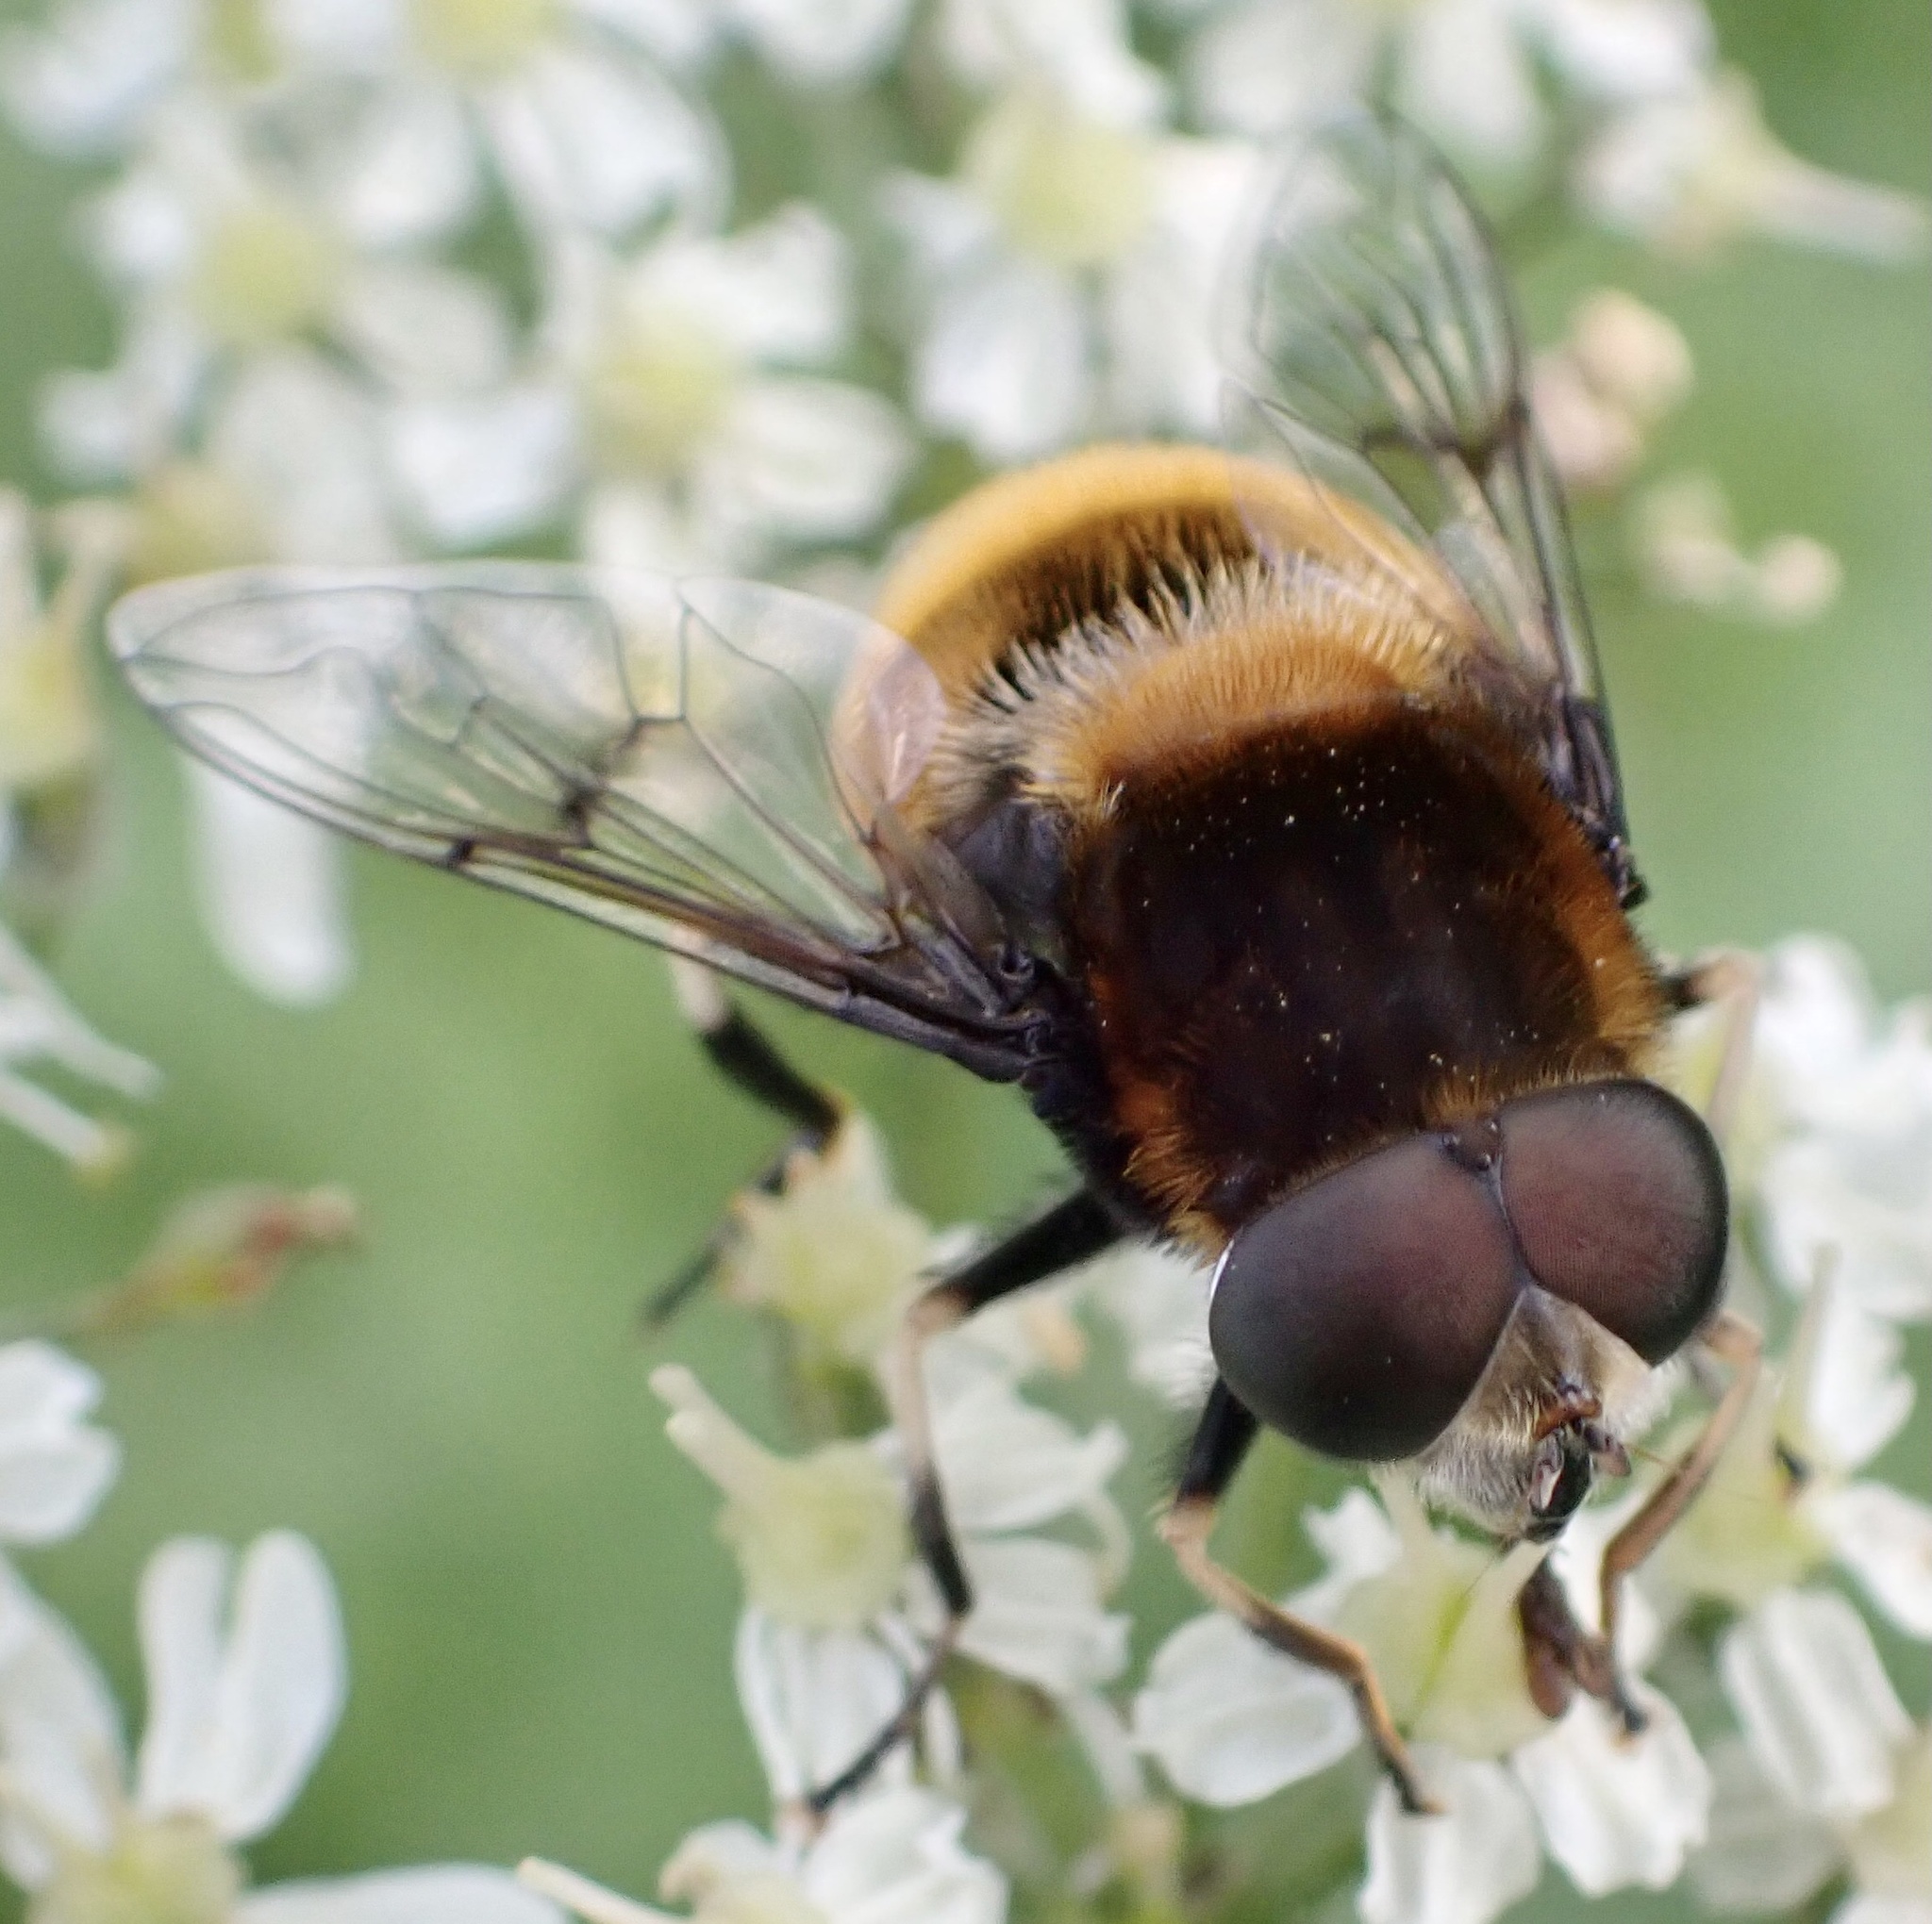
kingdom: Animalia
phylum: Arthropoda
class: Insecta
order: Diptera
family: Syrphidae
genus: Eristalis
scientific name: Eristalis intricaria
